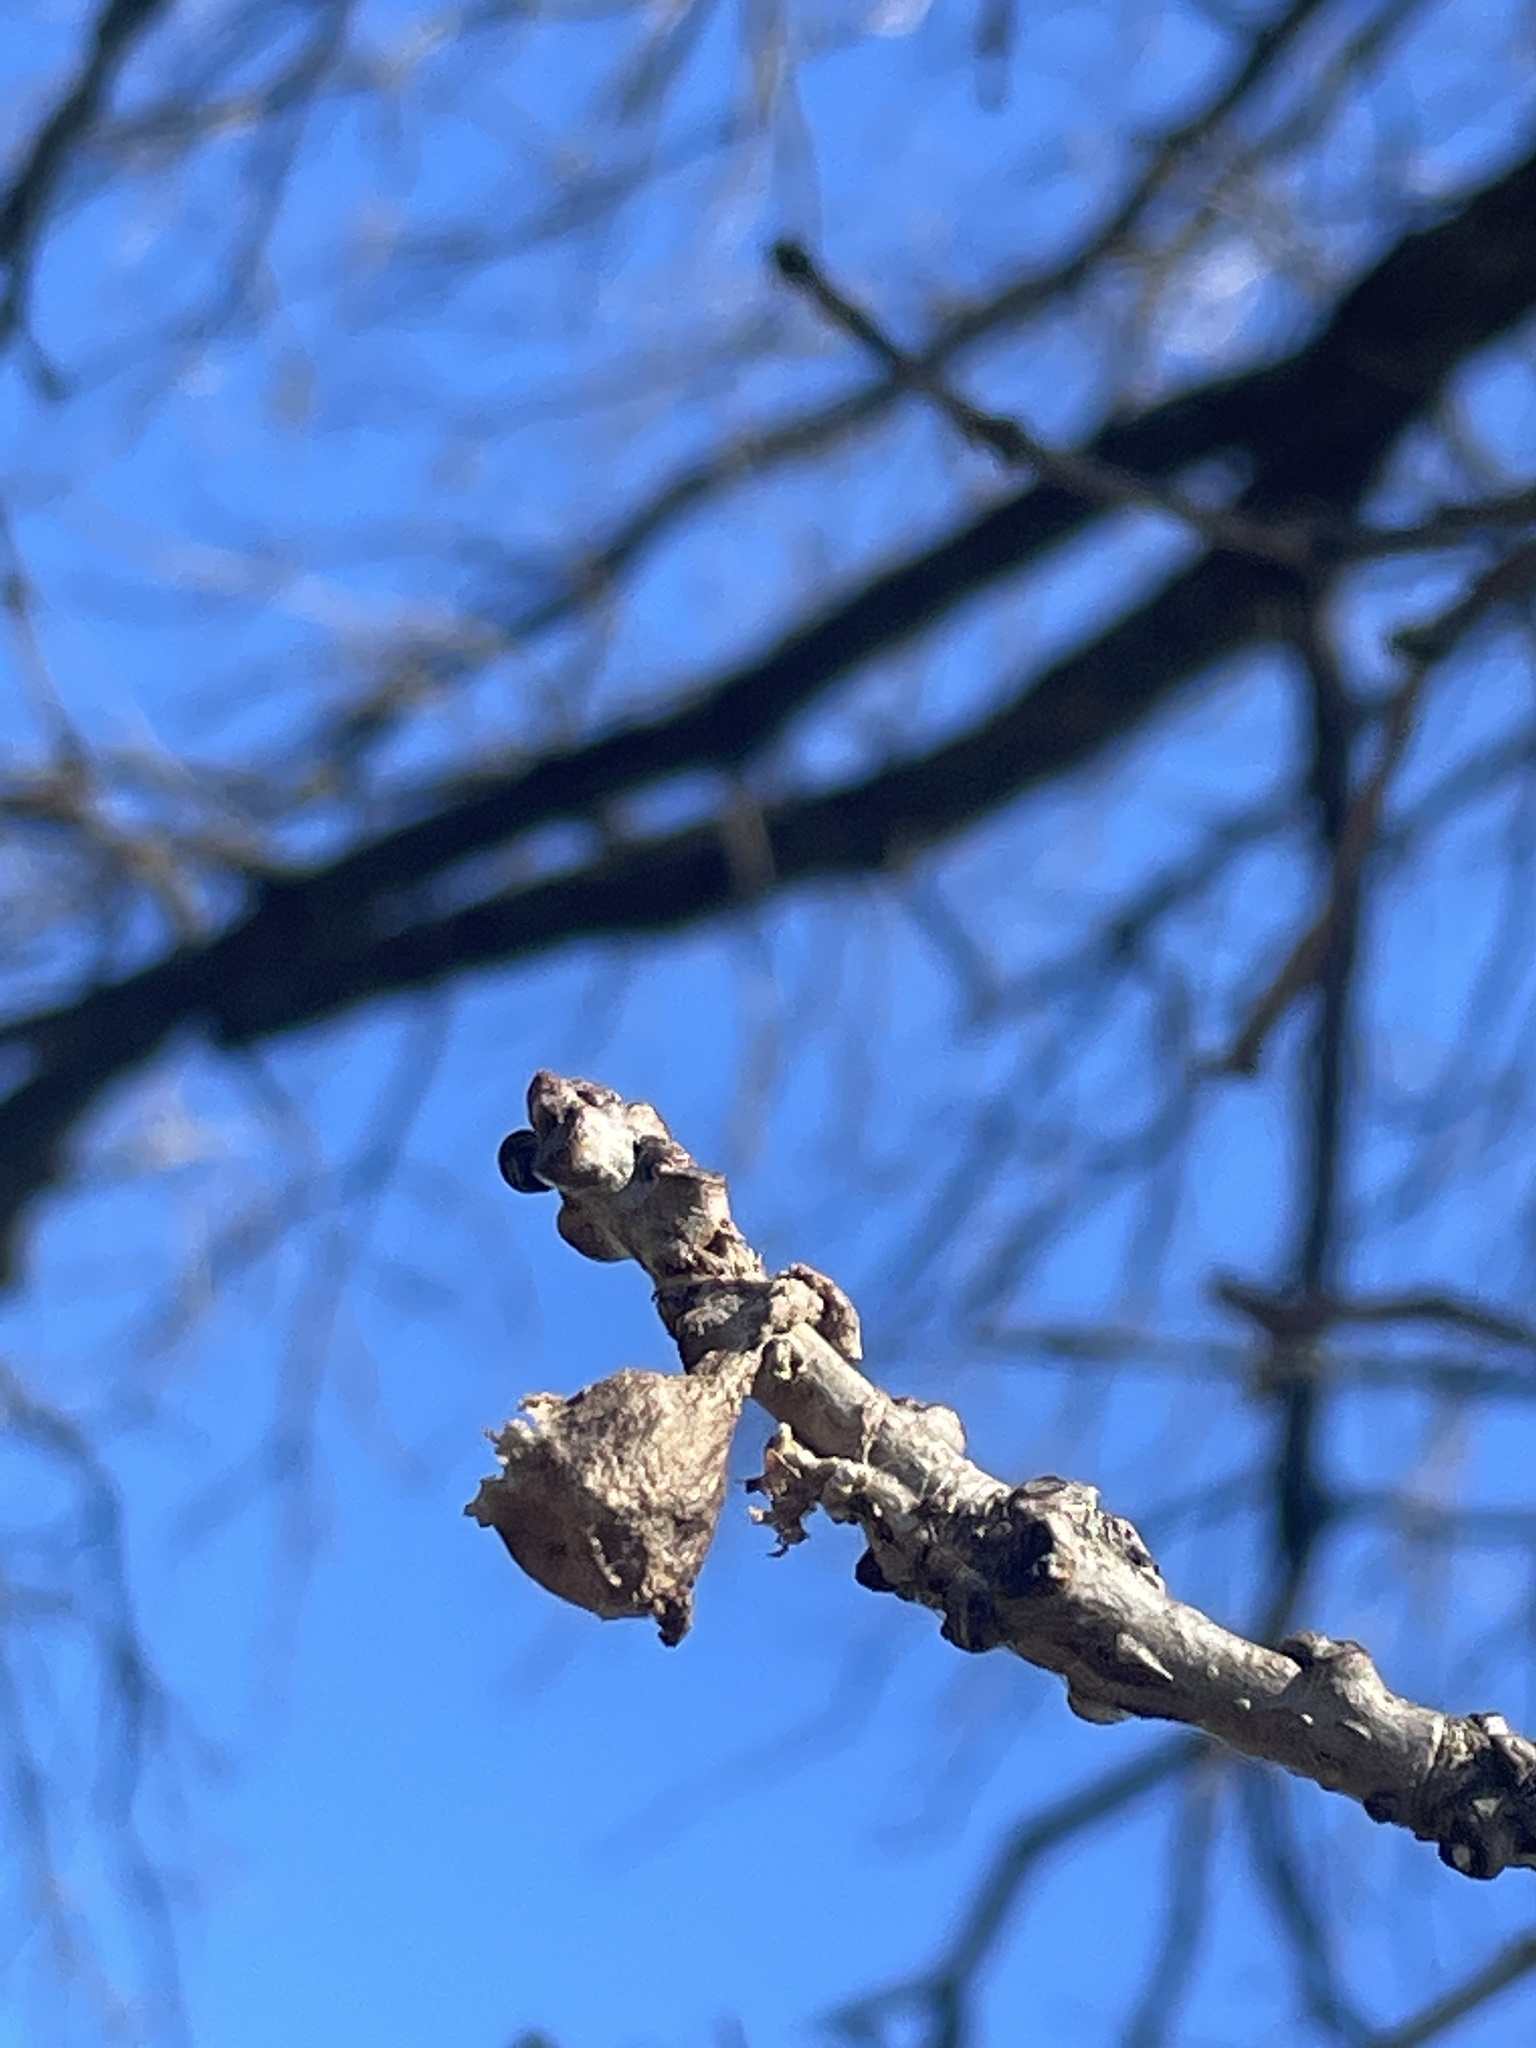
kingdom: Animalia
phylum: Arthropoda
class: Arachnida
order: Araneae
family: Araneidae
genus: Mastophora
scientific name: Mastophora phrynosoma
